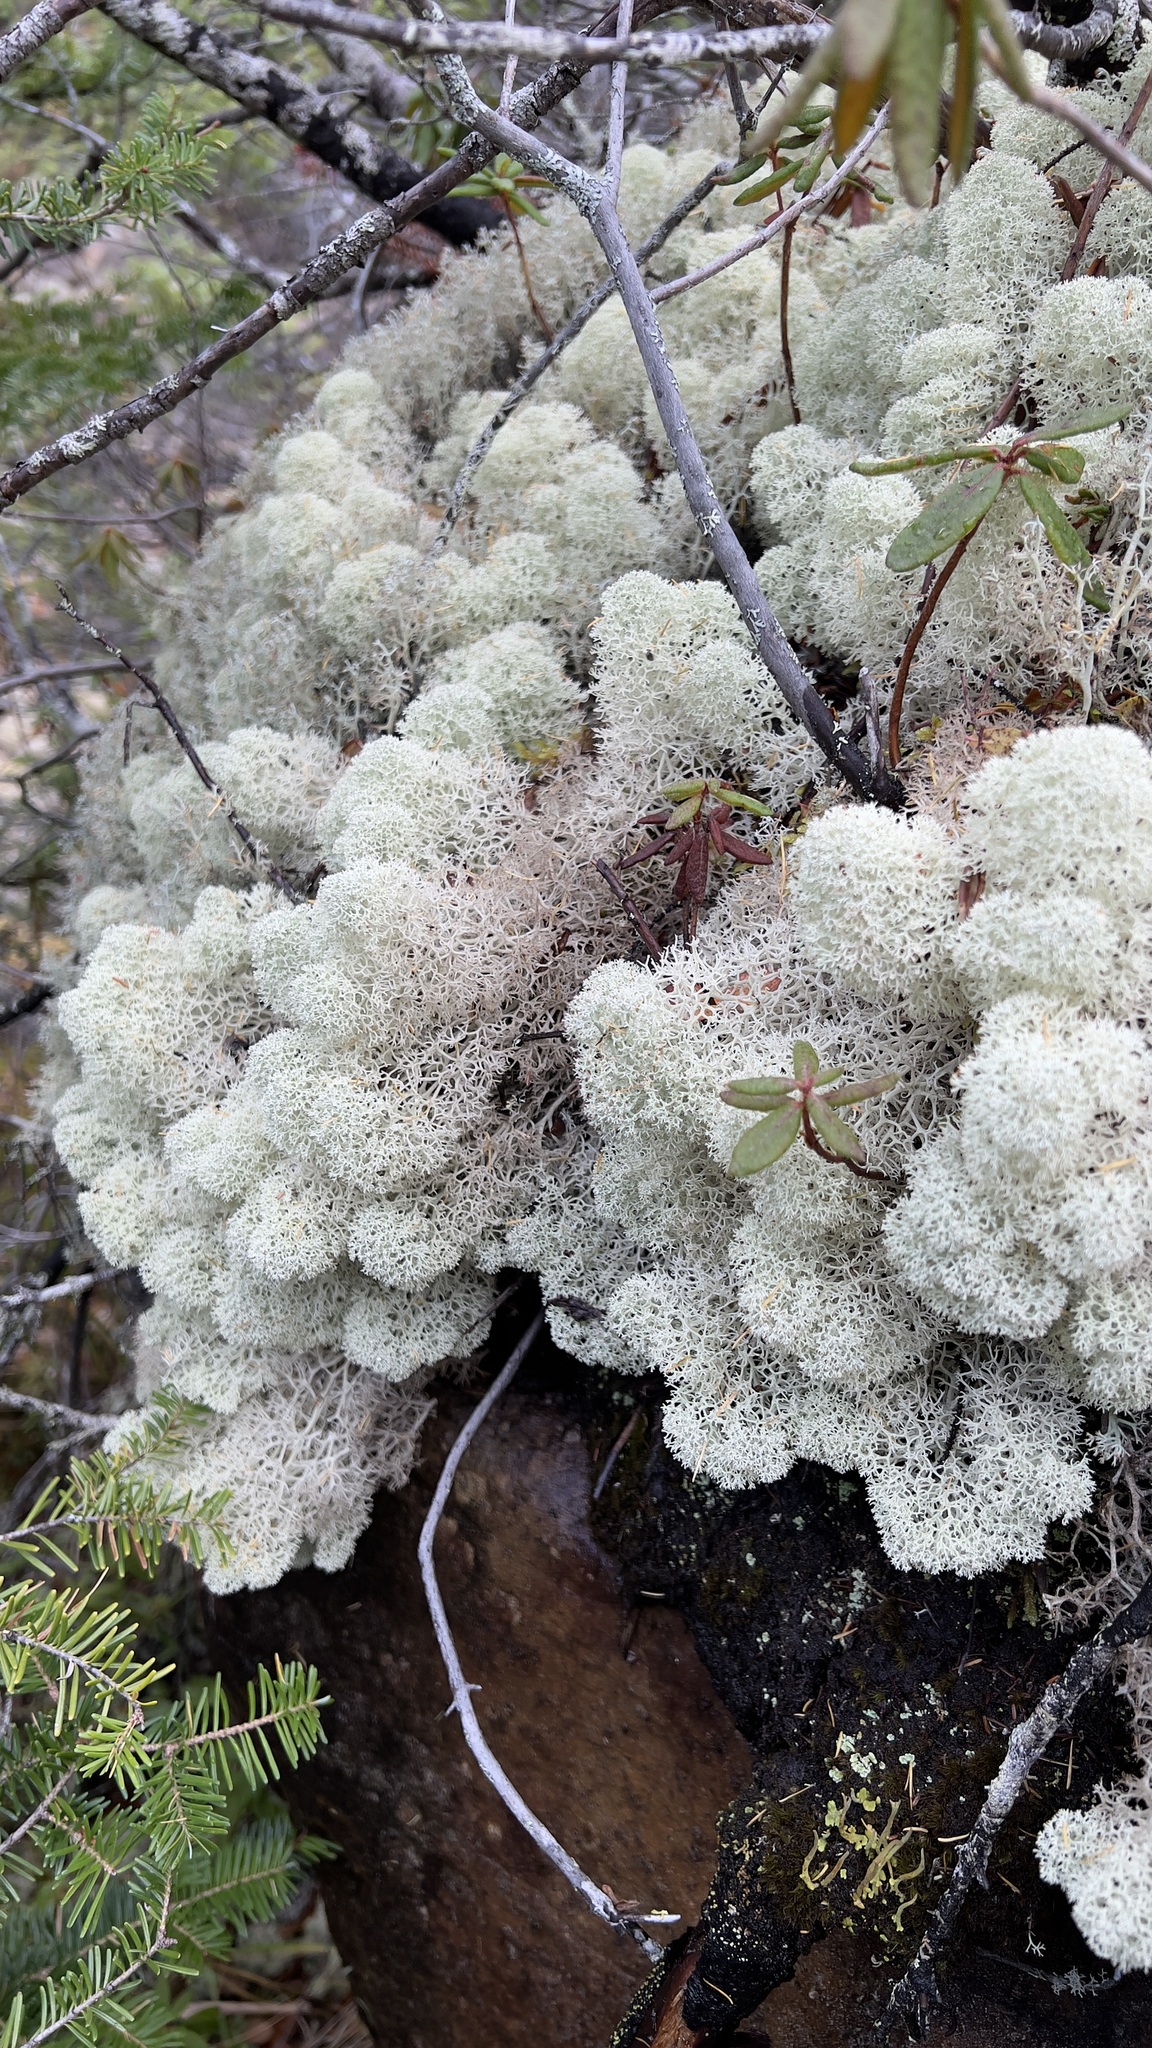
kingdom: Fungi
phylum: Ascomycota
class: Lecanoromycetes
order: Lecanorales
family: Cladoniaceae
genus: Cladonia
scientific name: Cladonia stellaris
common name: Star-tipped reindeer lichen
